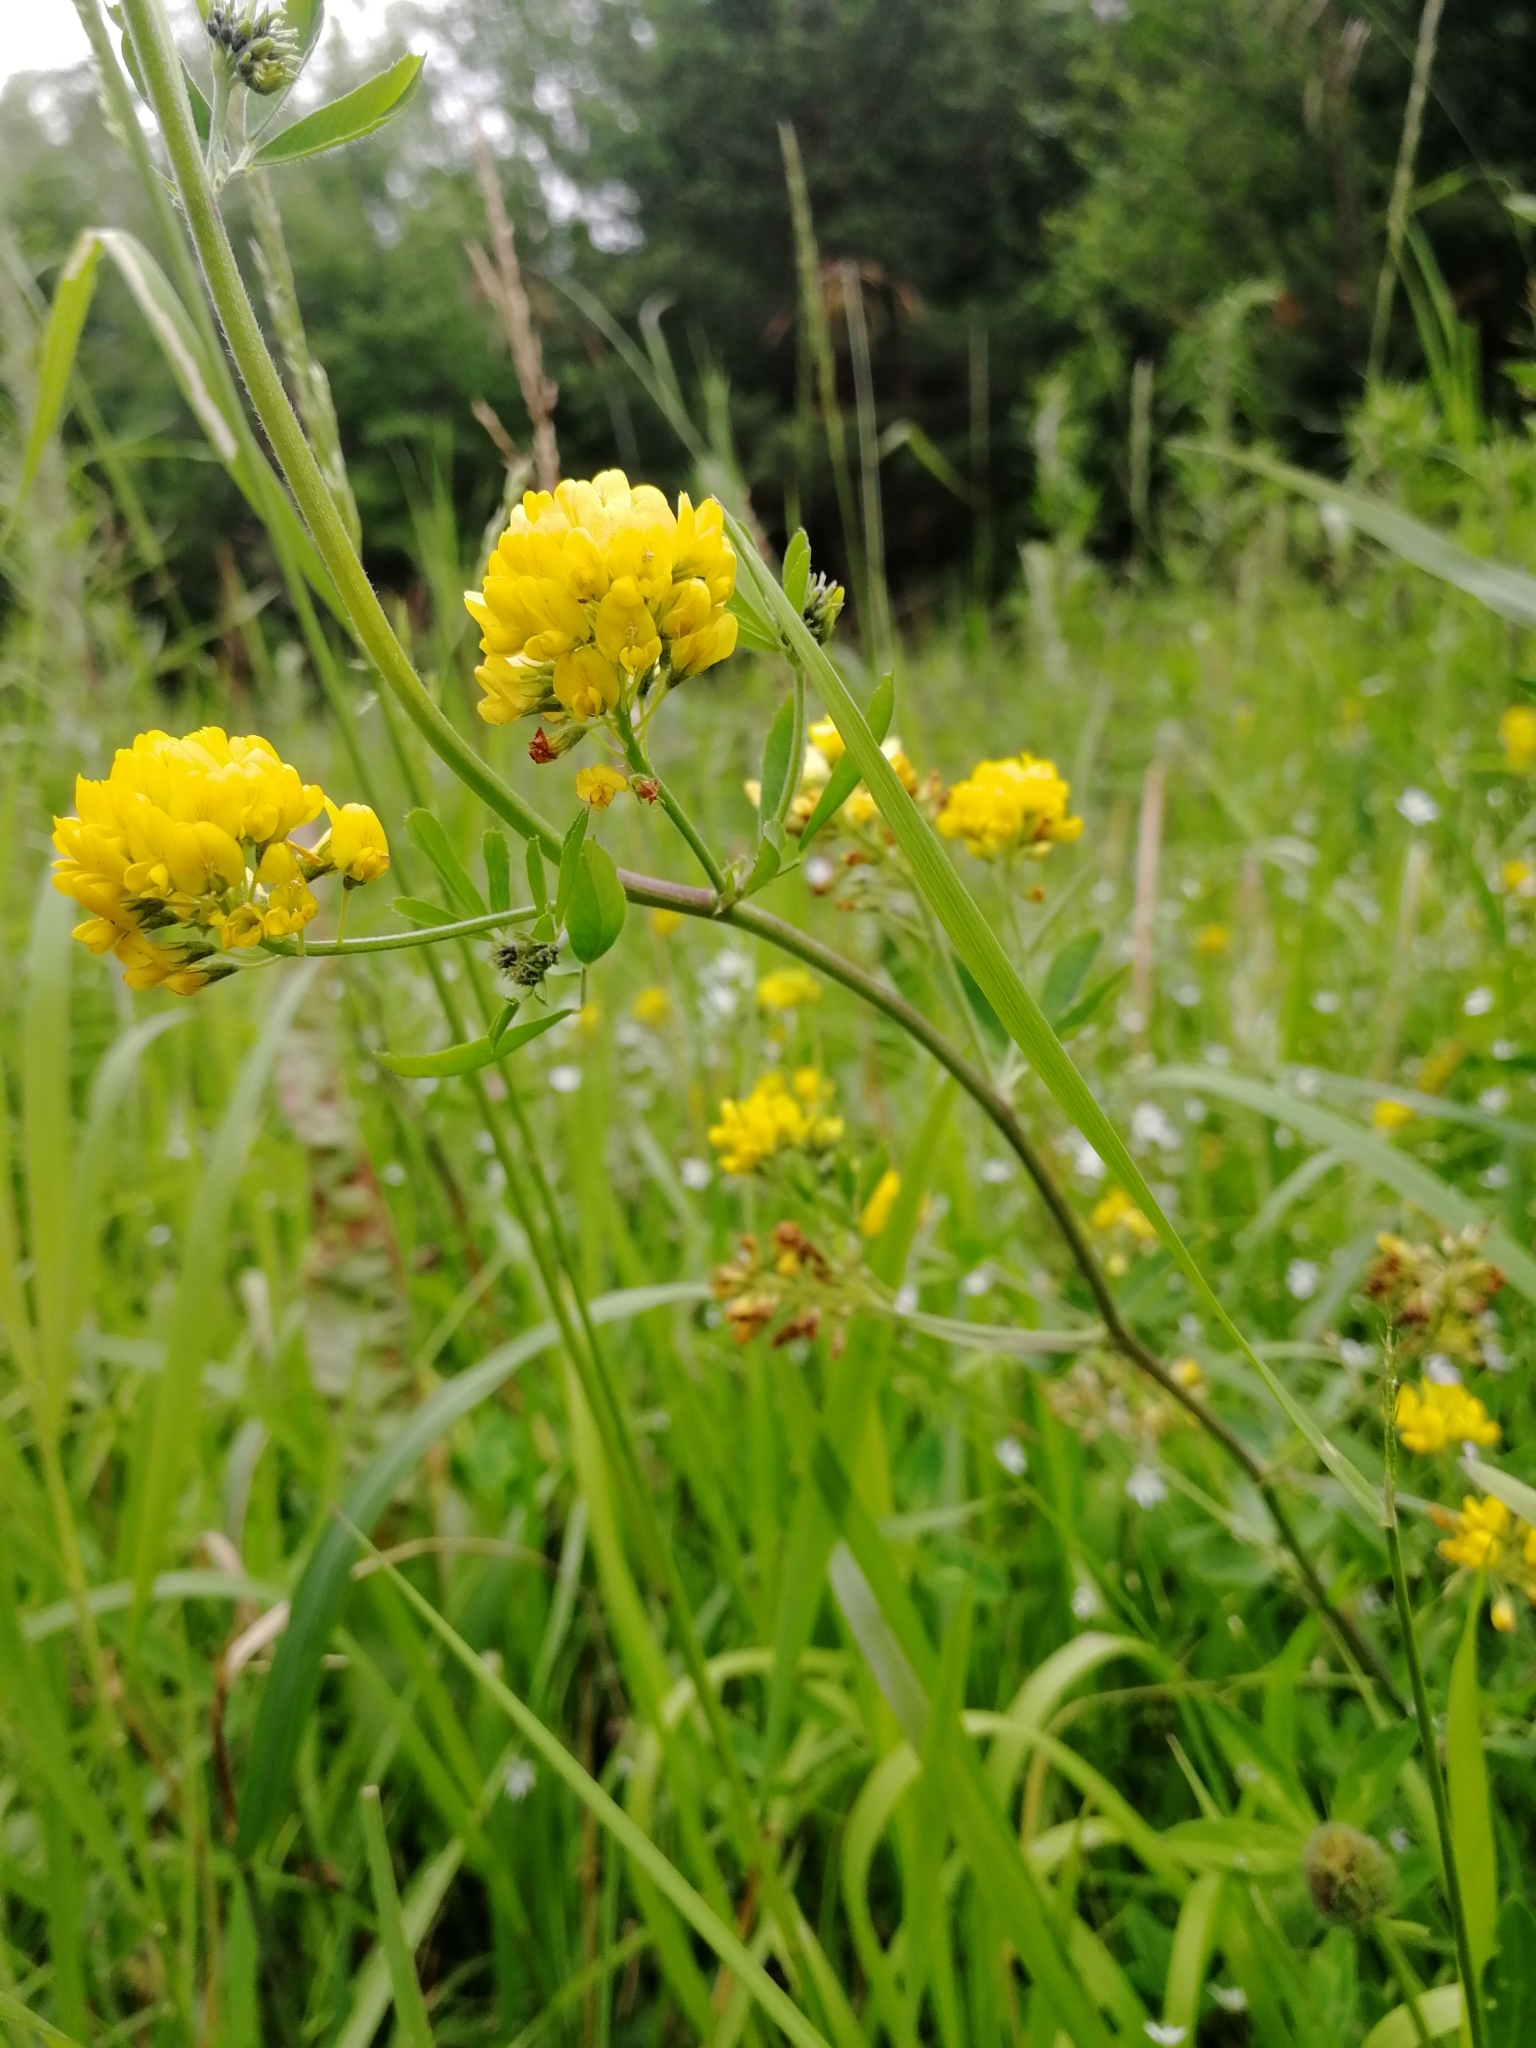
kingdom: Plantae
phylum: Tracheophyta
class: Magnoliopsida
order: Fabales
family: Fabaceae
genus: Medicago
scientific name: Medicago falcata
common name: Sickle medick
